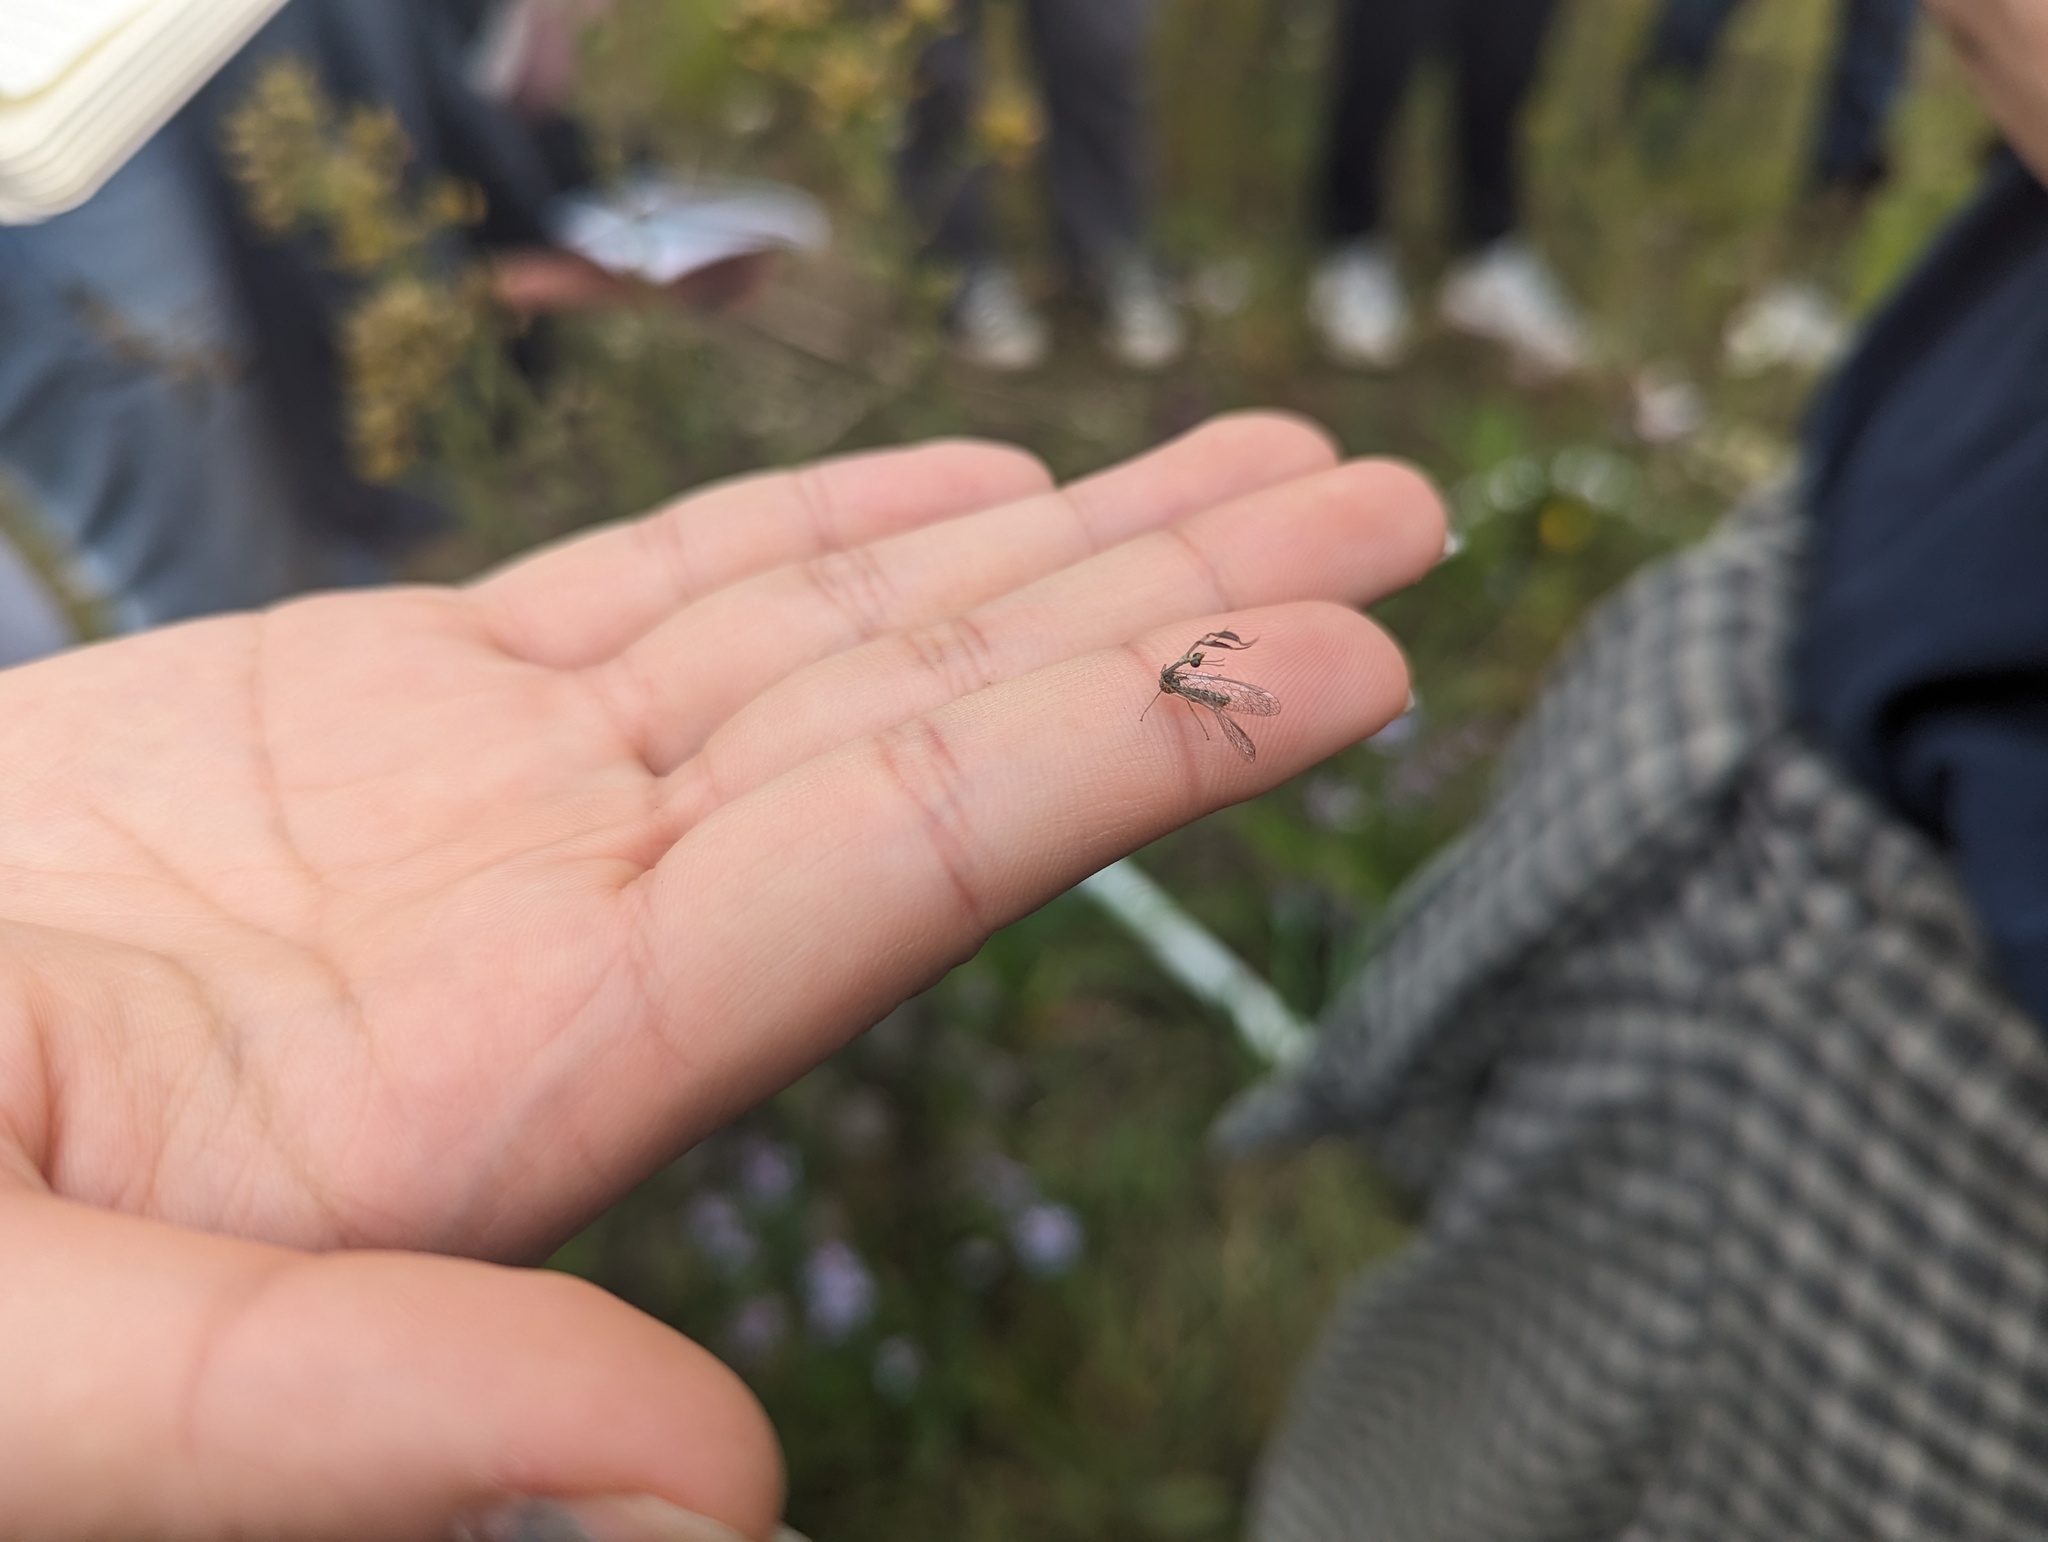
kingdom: Animalia
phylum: Arthropoda
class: Insecta
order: Neuroptera
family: Mantispidae
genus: Leptomantispa
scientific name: Leptomantispa pulchella
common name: Stevens's mantidfly
